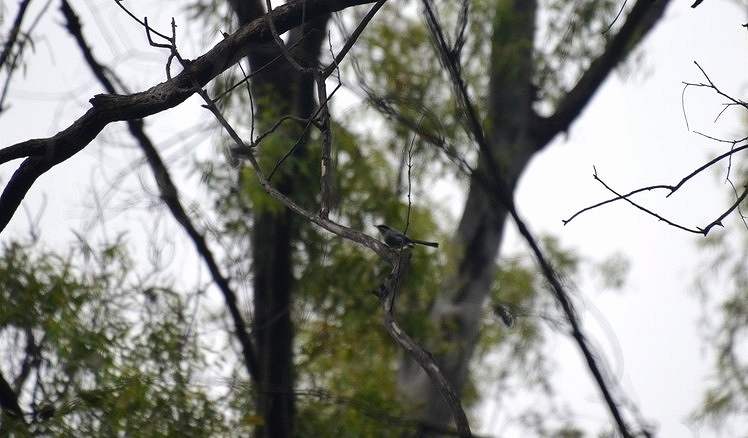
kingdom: Animalia
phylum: Chordata
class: Aves
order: Passeriformes
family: Polioptilidae
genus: Polioptila
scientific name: Polioptila dumicola
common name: Masked gnatcatcher
